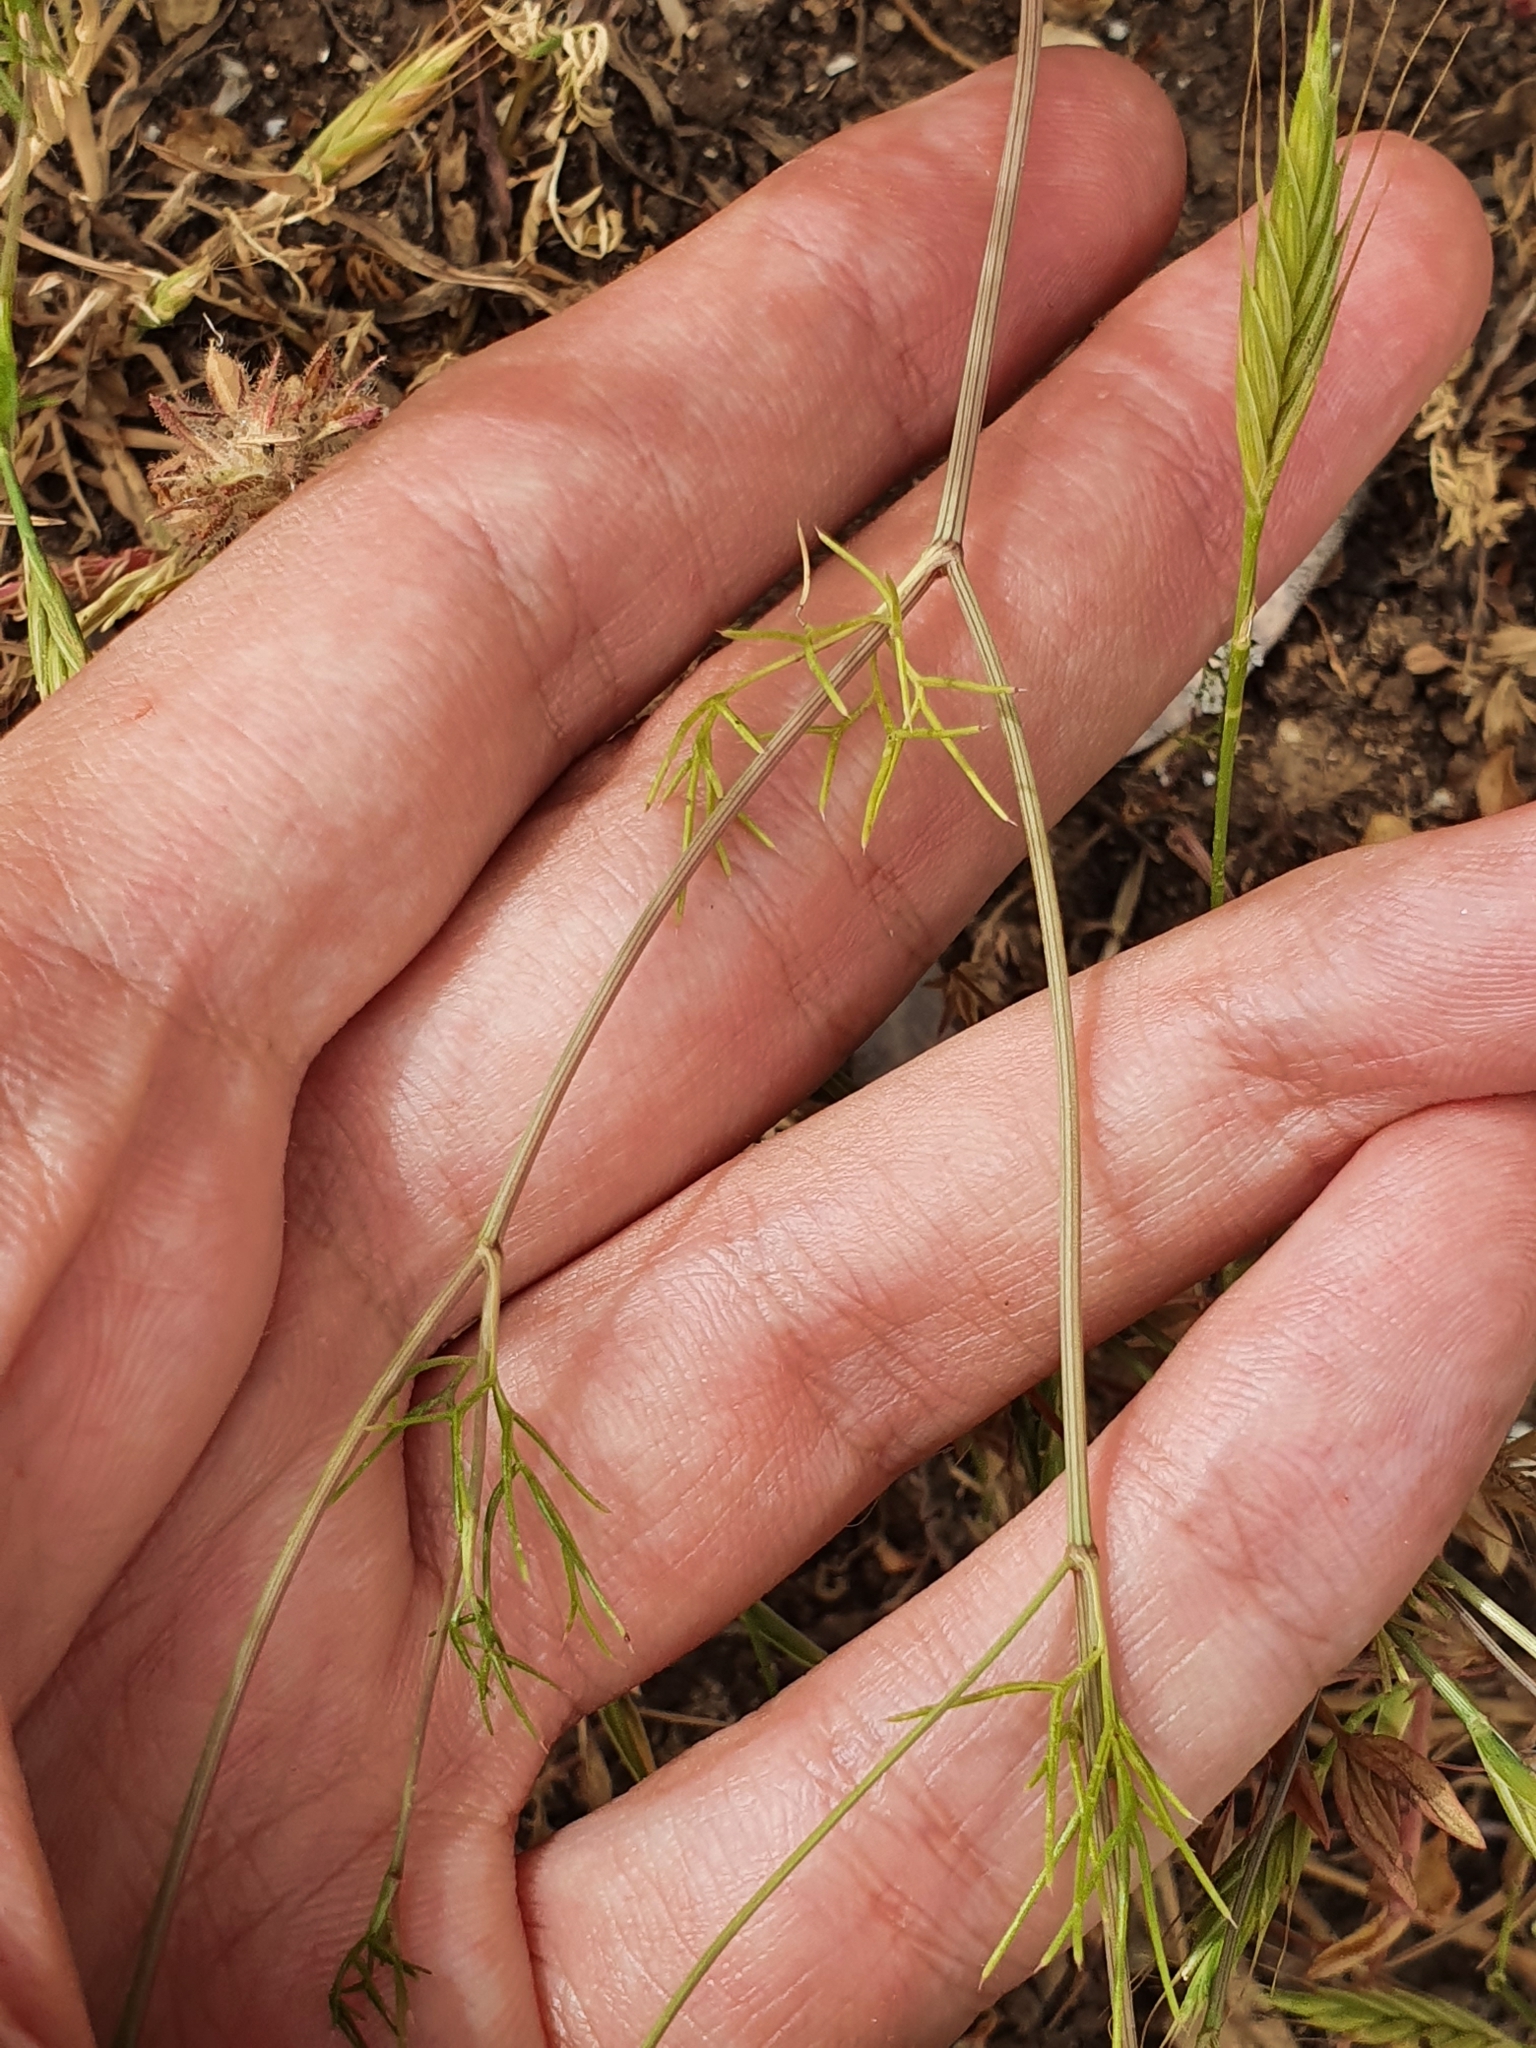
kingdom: Plantae
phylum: Tracheophyta
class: Magnoliopsida
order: Apiales
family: Apiaceae
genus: Ammoides
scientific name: Ammoides pusilla
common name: Cerfolium
